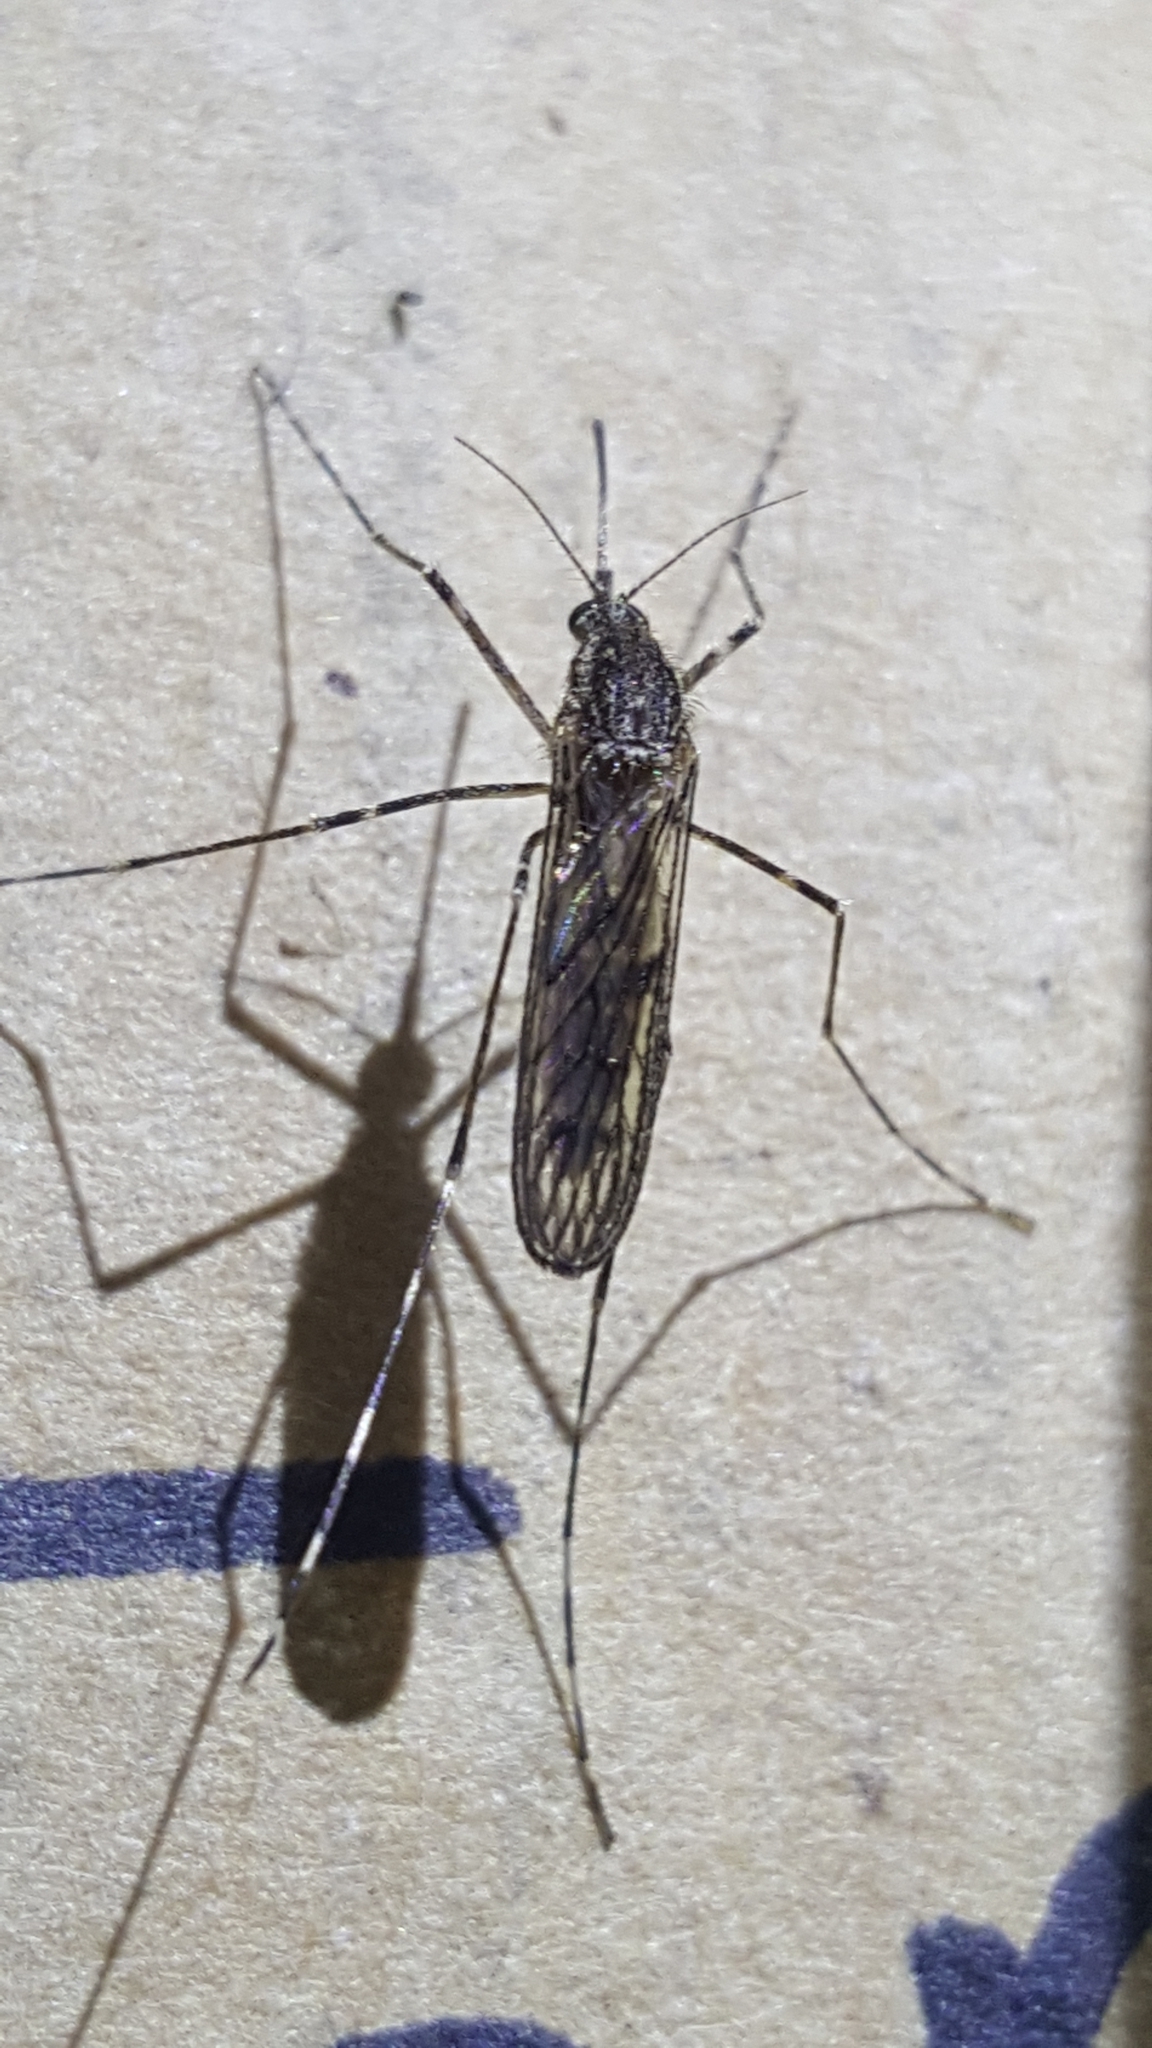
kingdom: Animalia
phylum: Arthropoda
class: Insecta
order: Diptera
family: Culicidae
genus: Culiseta
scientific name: Culiseta annulata
